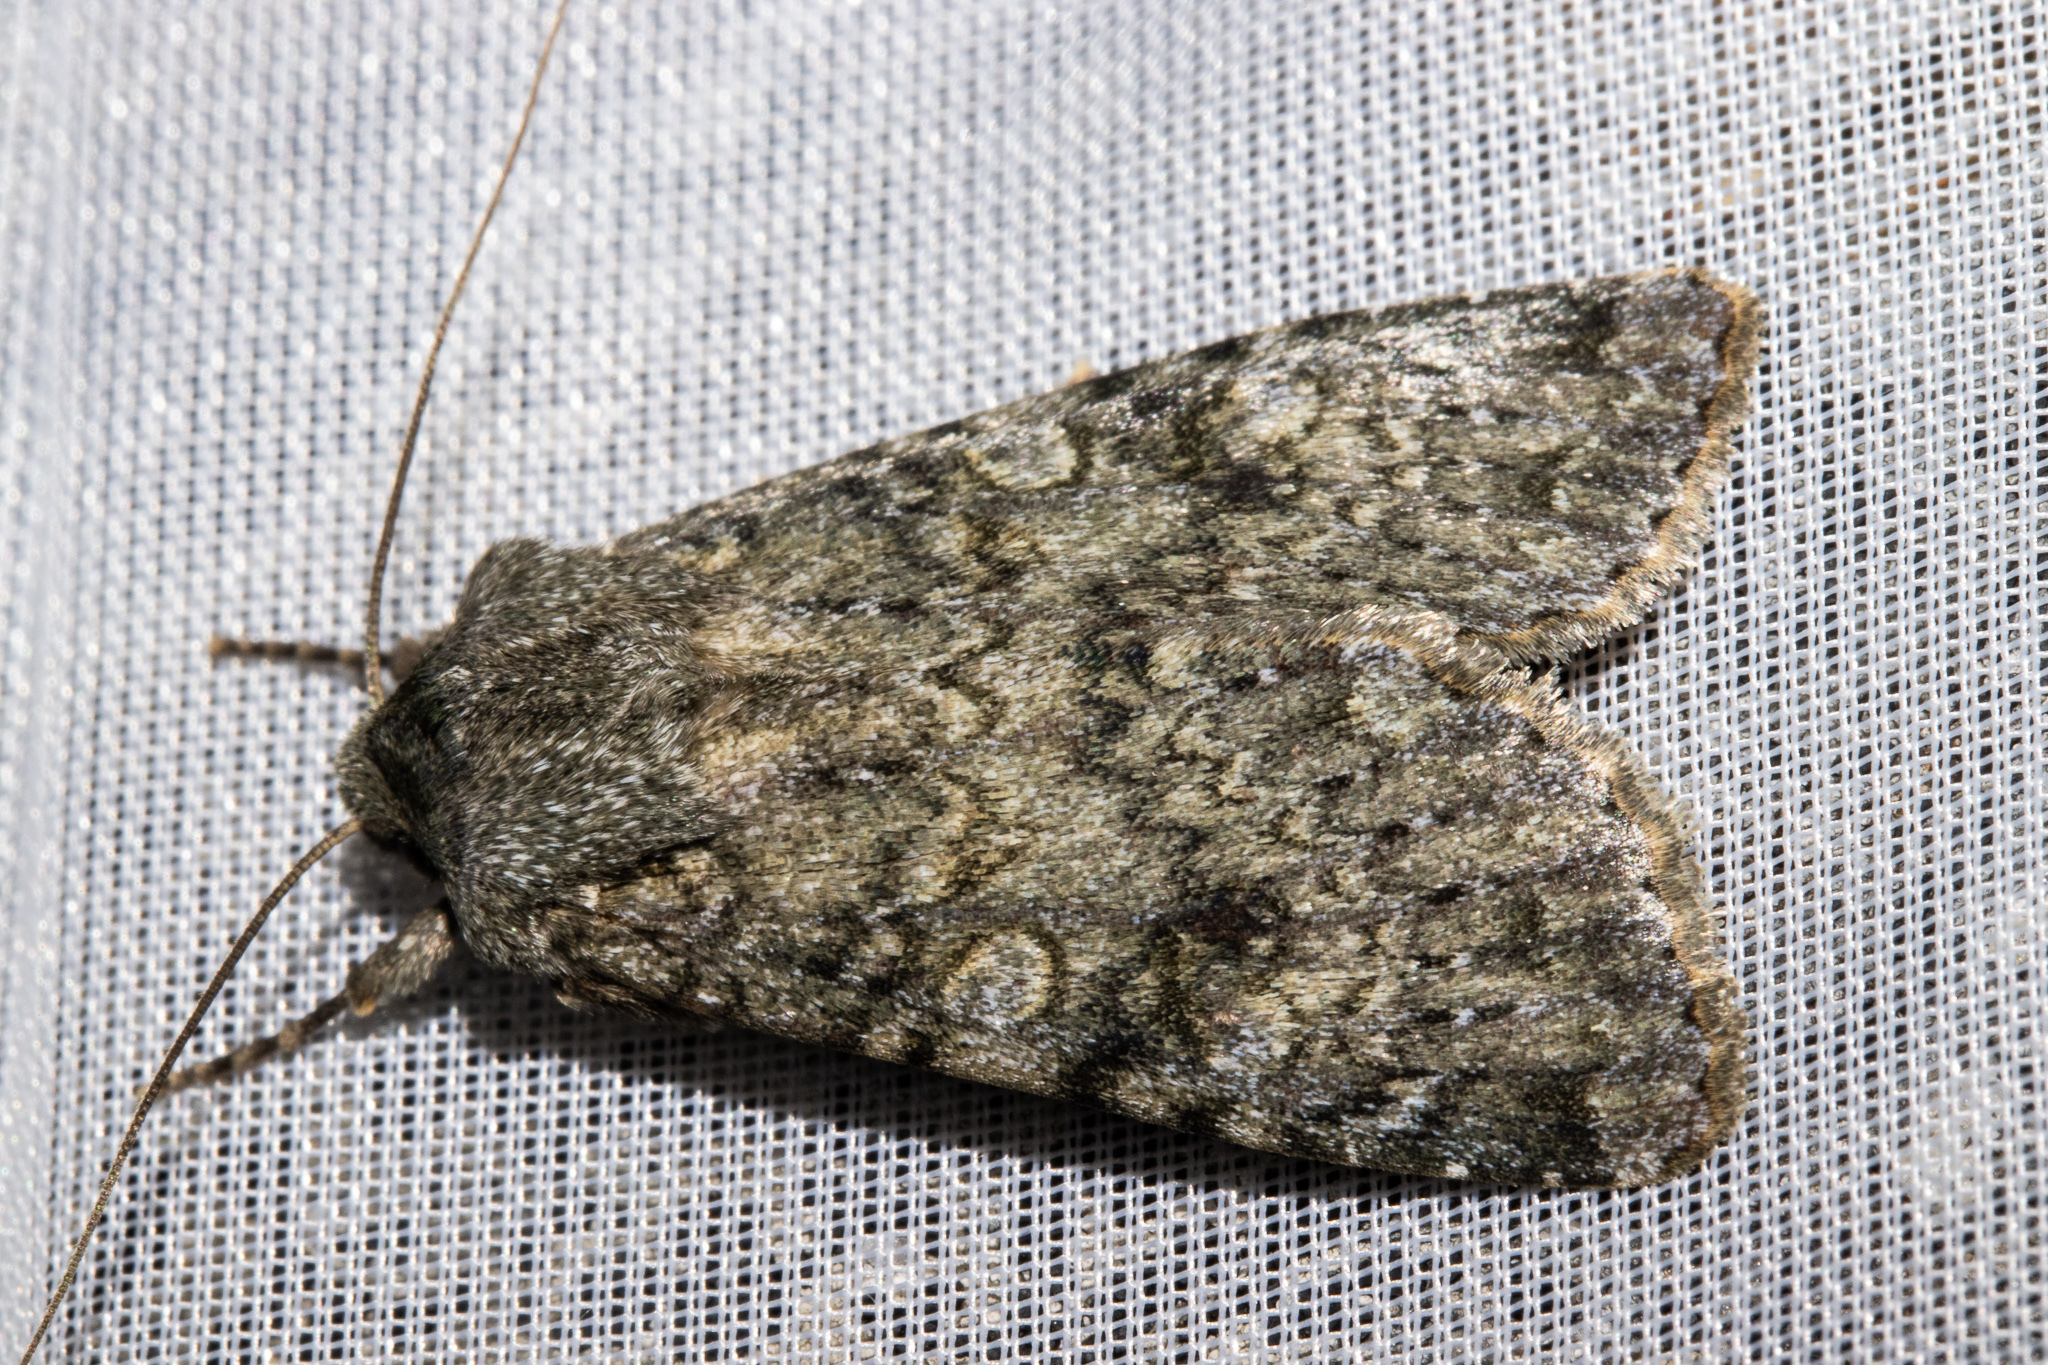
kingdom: Animalia
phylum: Arthropoda
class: Insecta
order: Lepidoptera
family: Noctuidae
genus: Ichneutica
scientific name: Ichneutica
